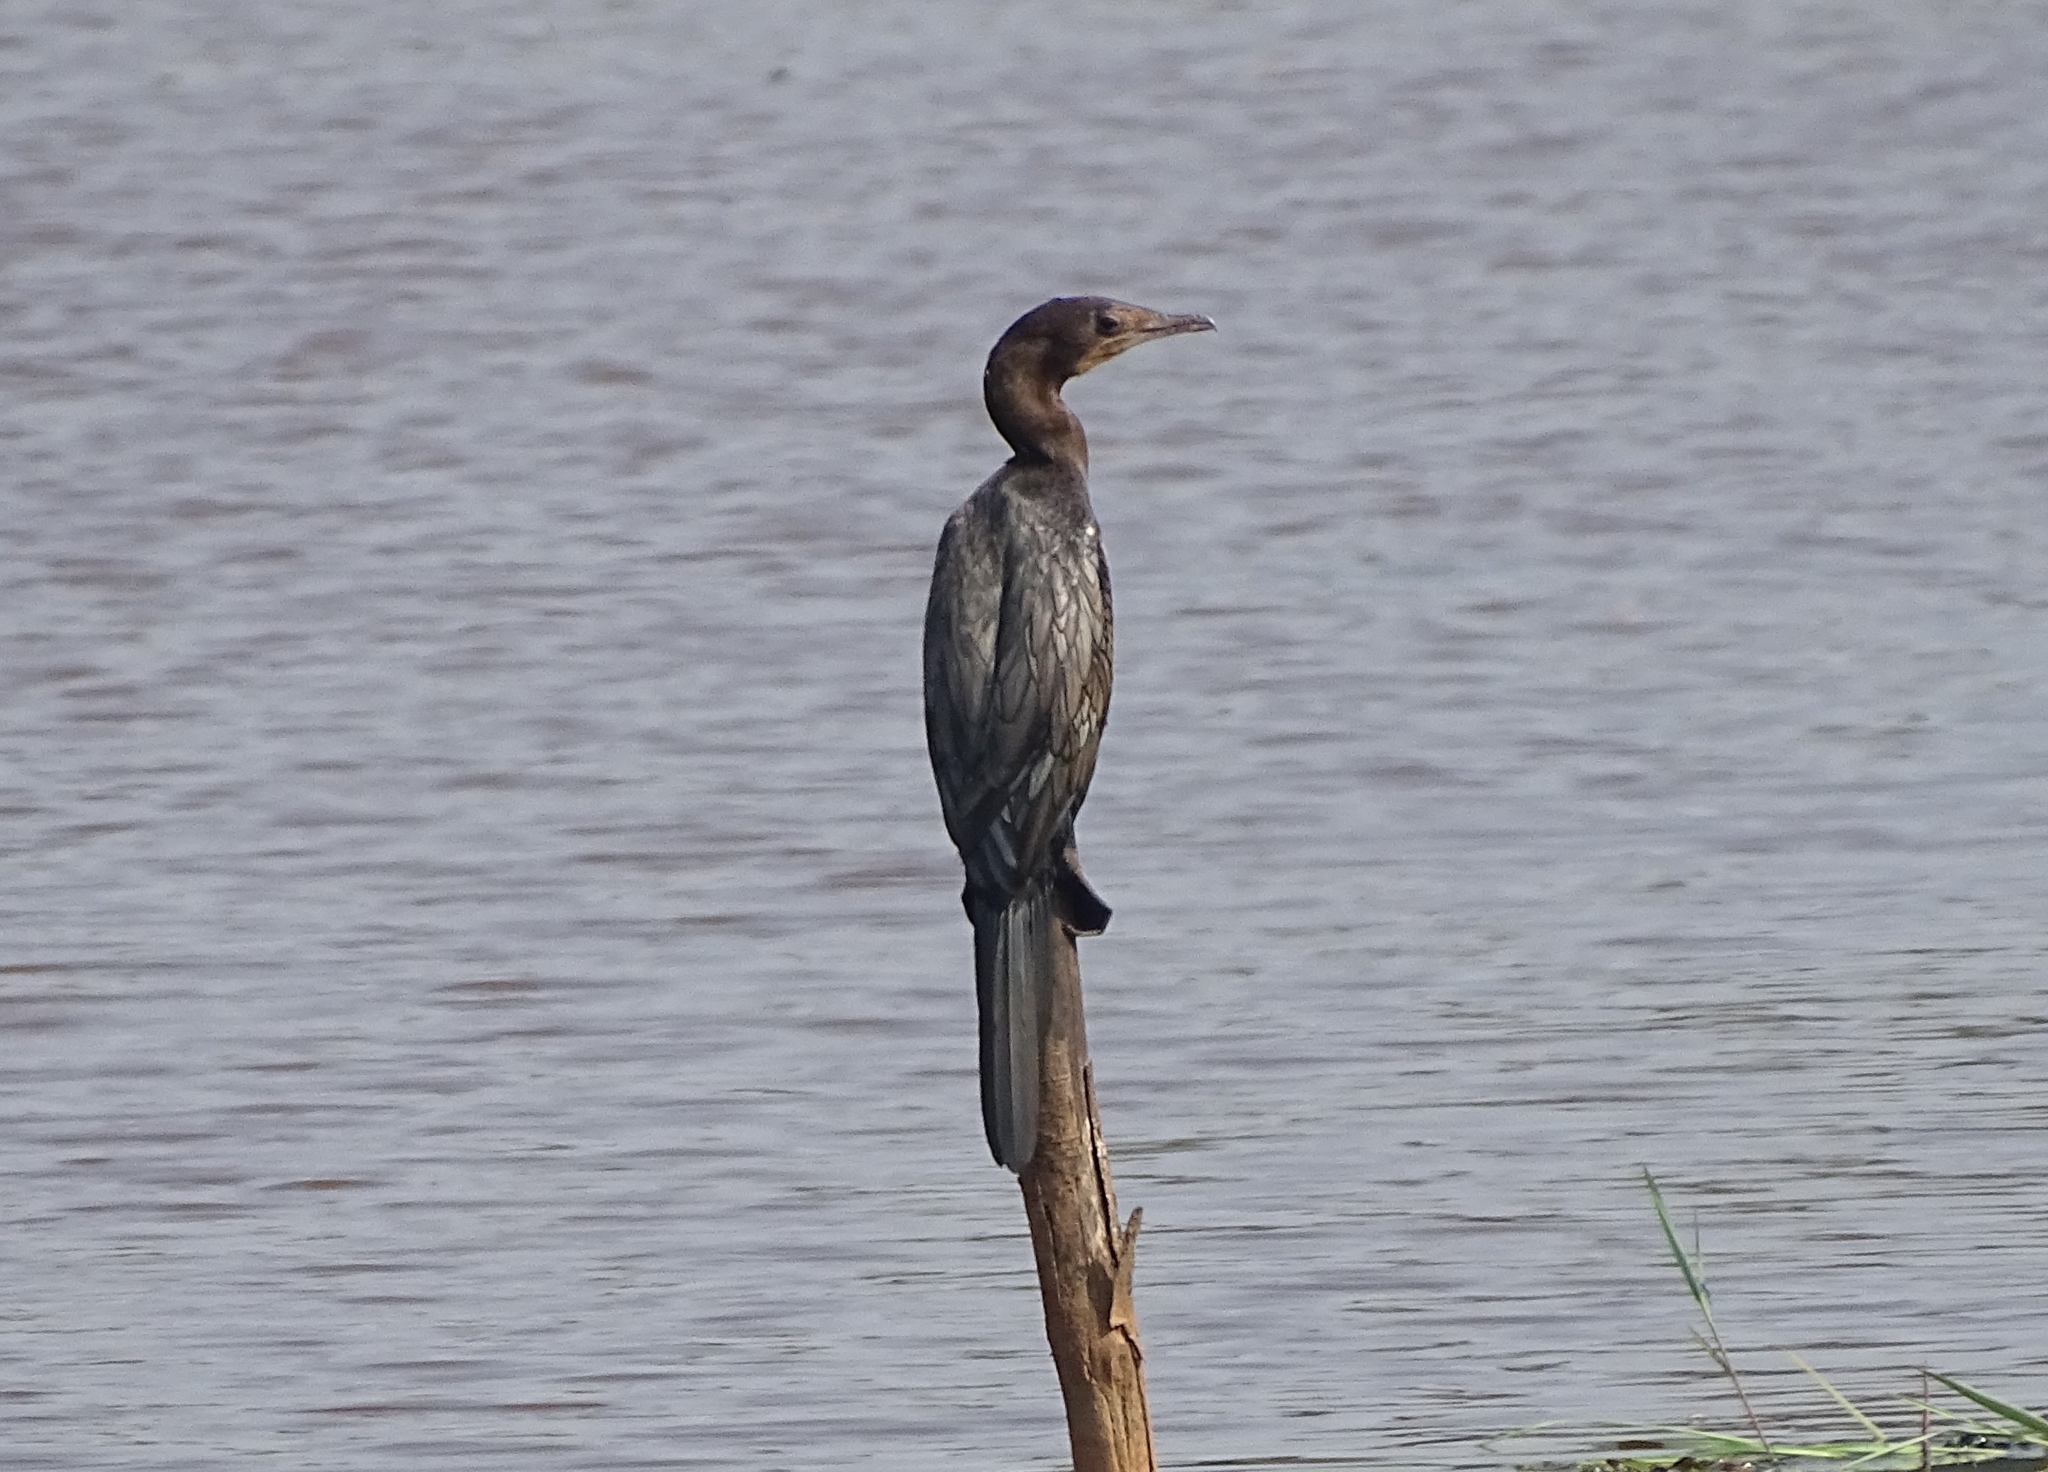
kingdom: Animalia
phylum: Chordata
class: Aves
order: Suliformes
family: Phalacrocoracidae
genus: Microcarbo
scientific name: Microcarbo niger
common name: Little cormorant
